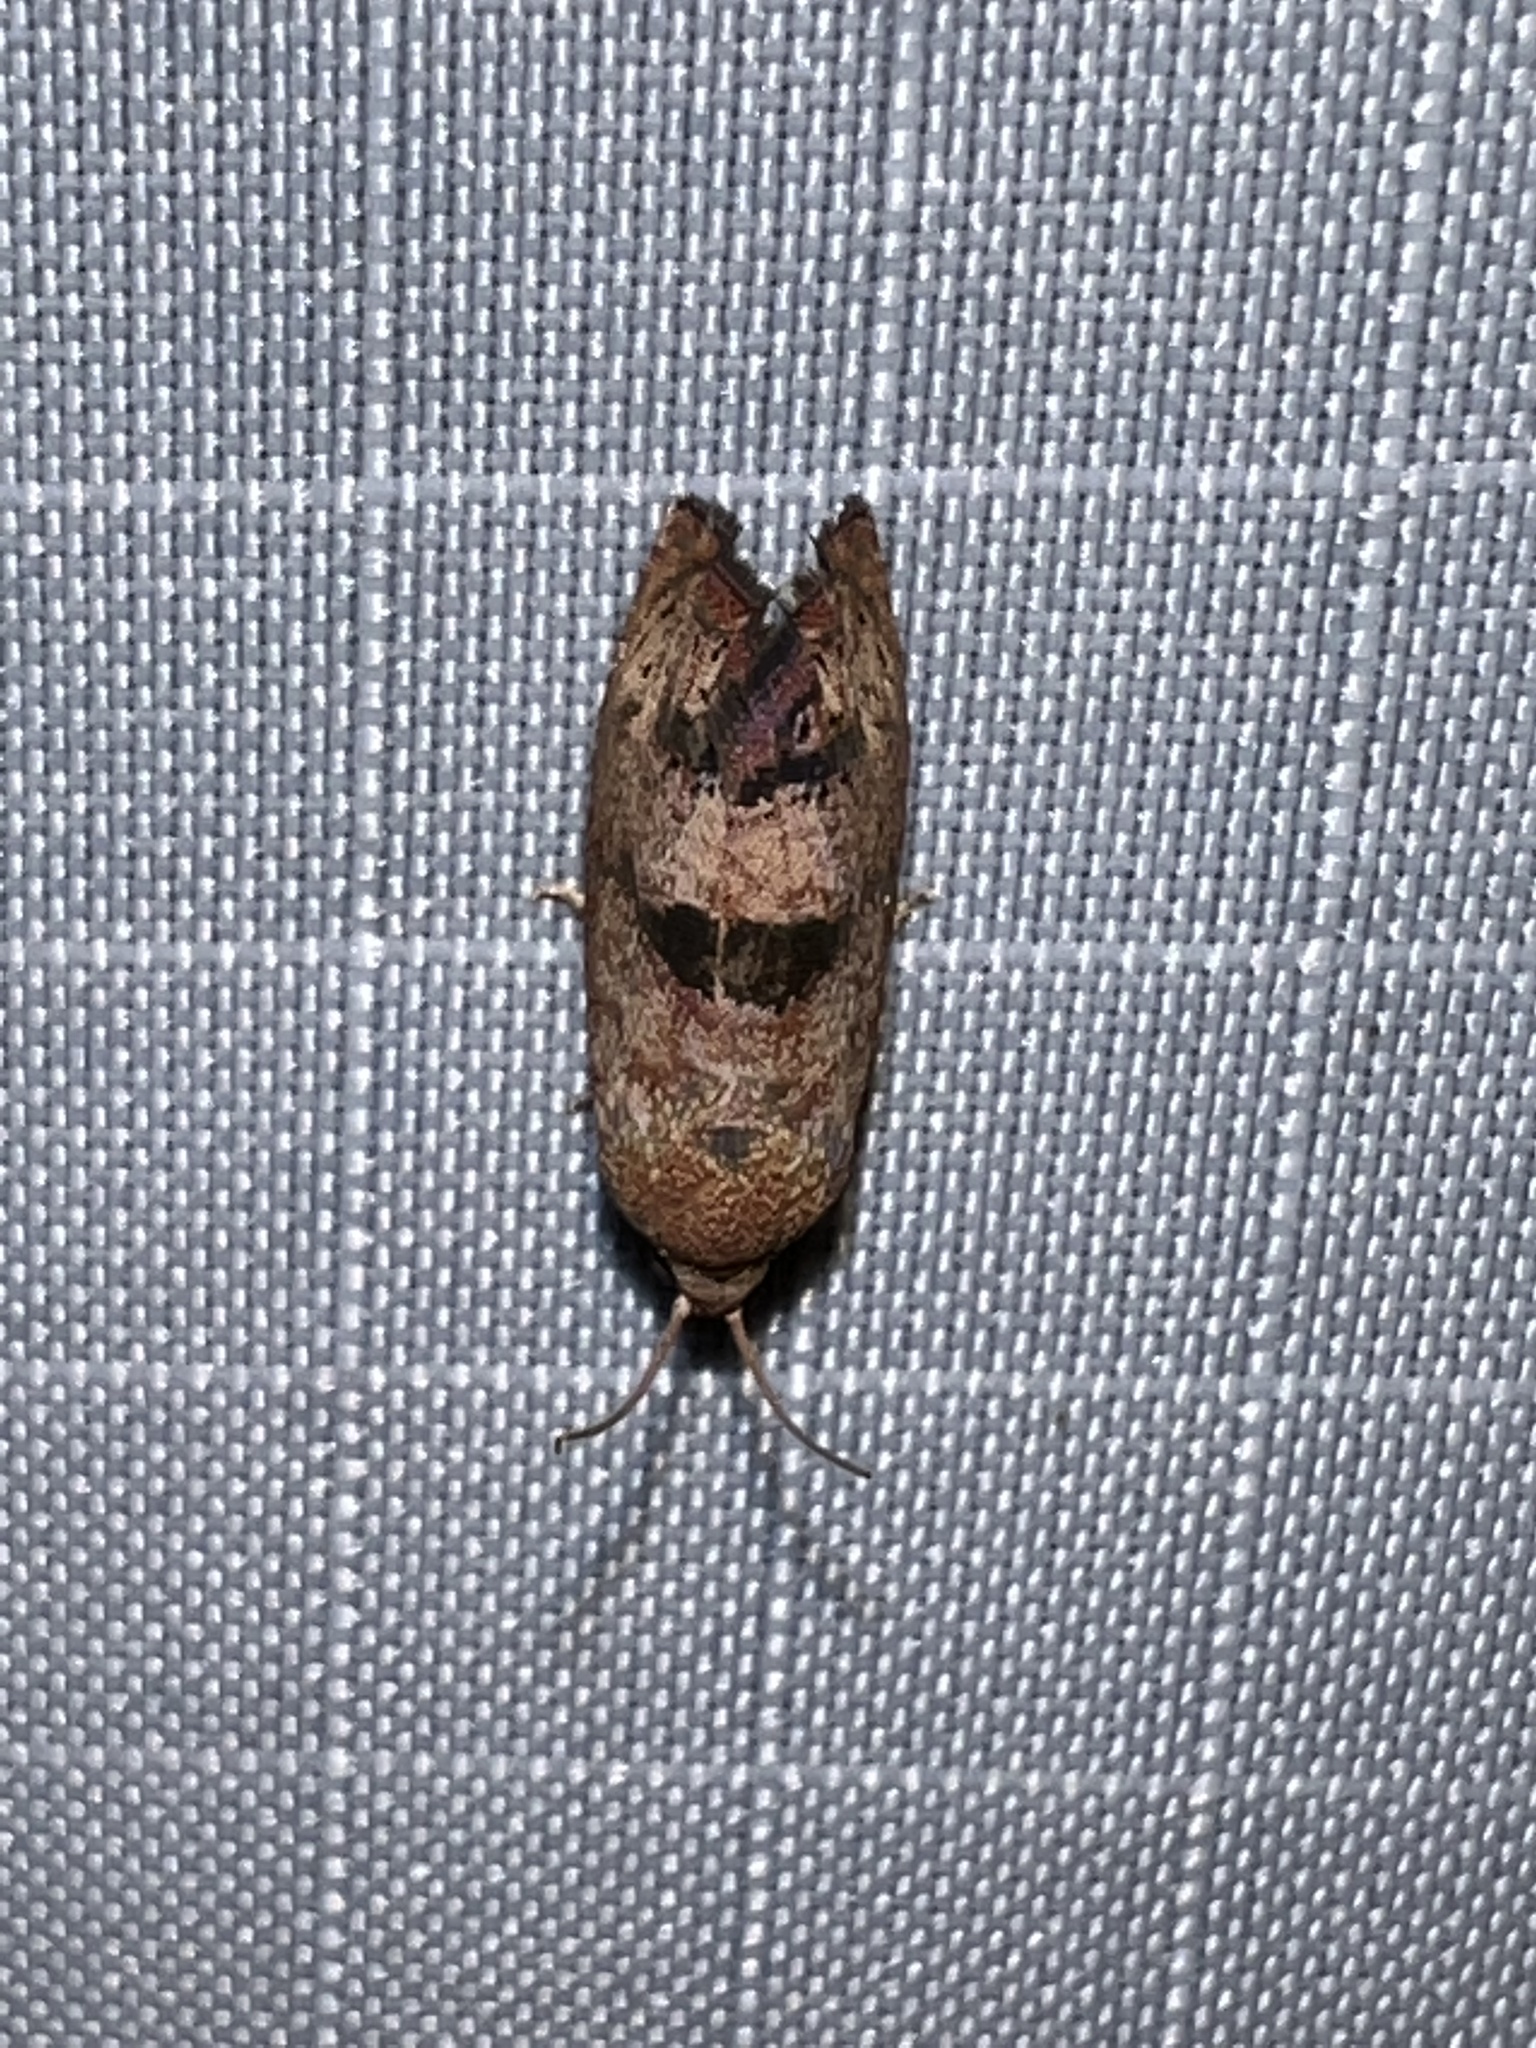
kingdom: Animalia
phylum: Arthropoda
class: Insecta
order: Lepidoptera
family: Tortricidae
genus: Cydia
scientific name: Cydia latiferreana
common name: Filbertworm moth
